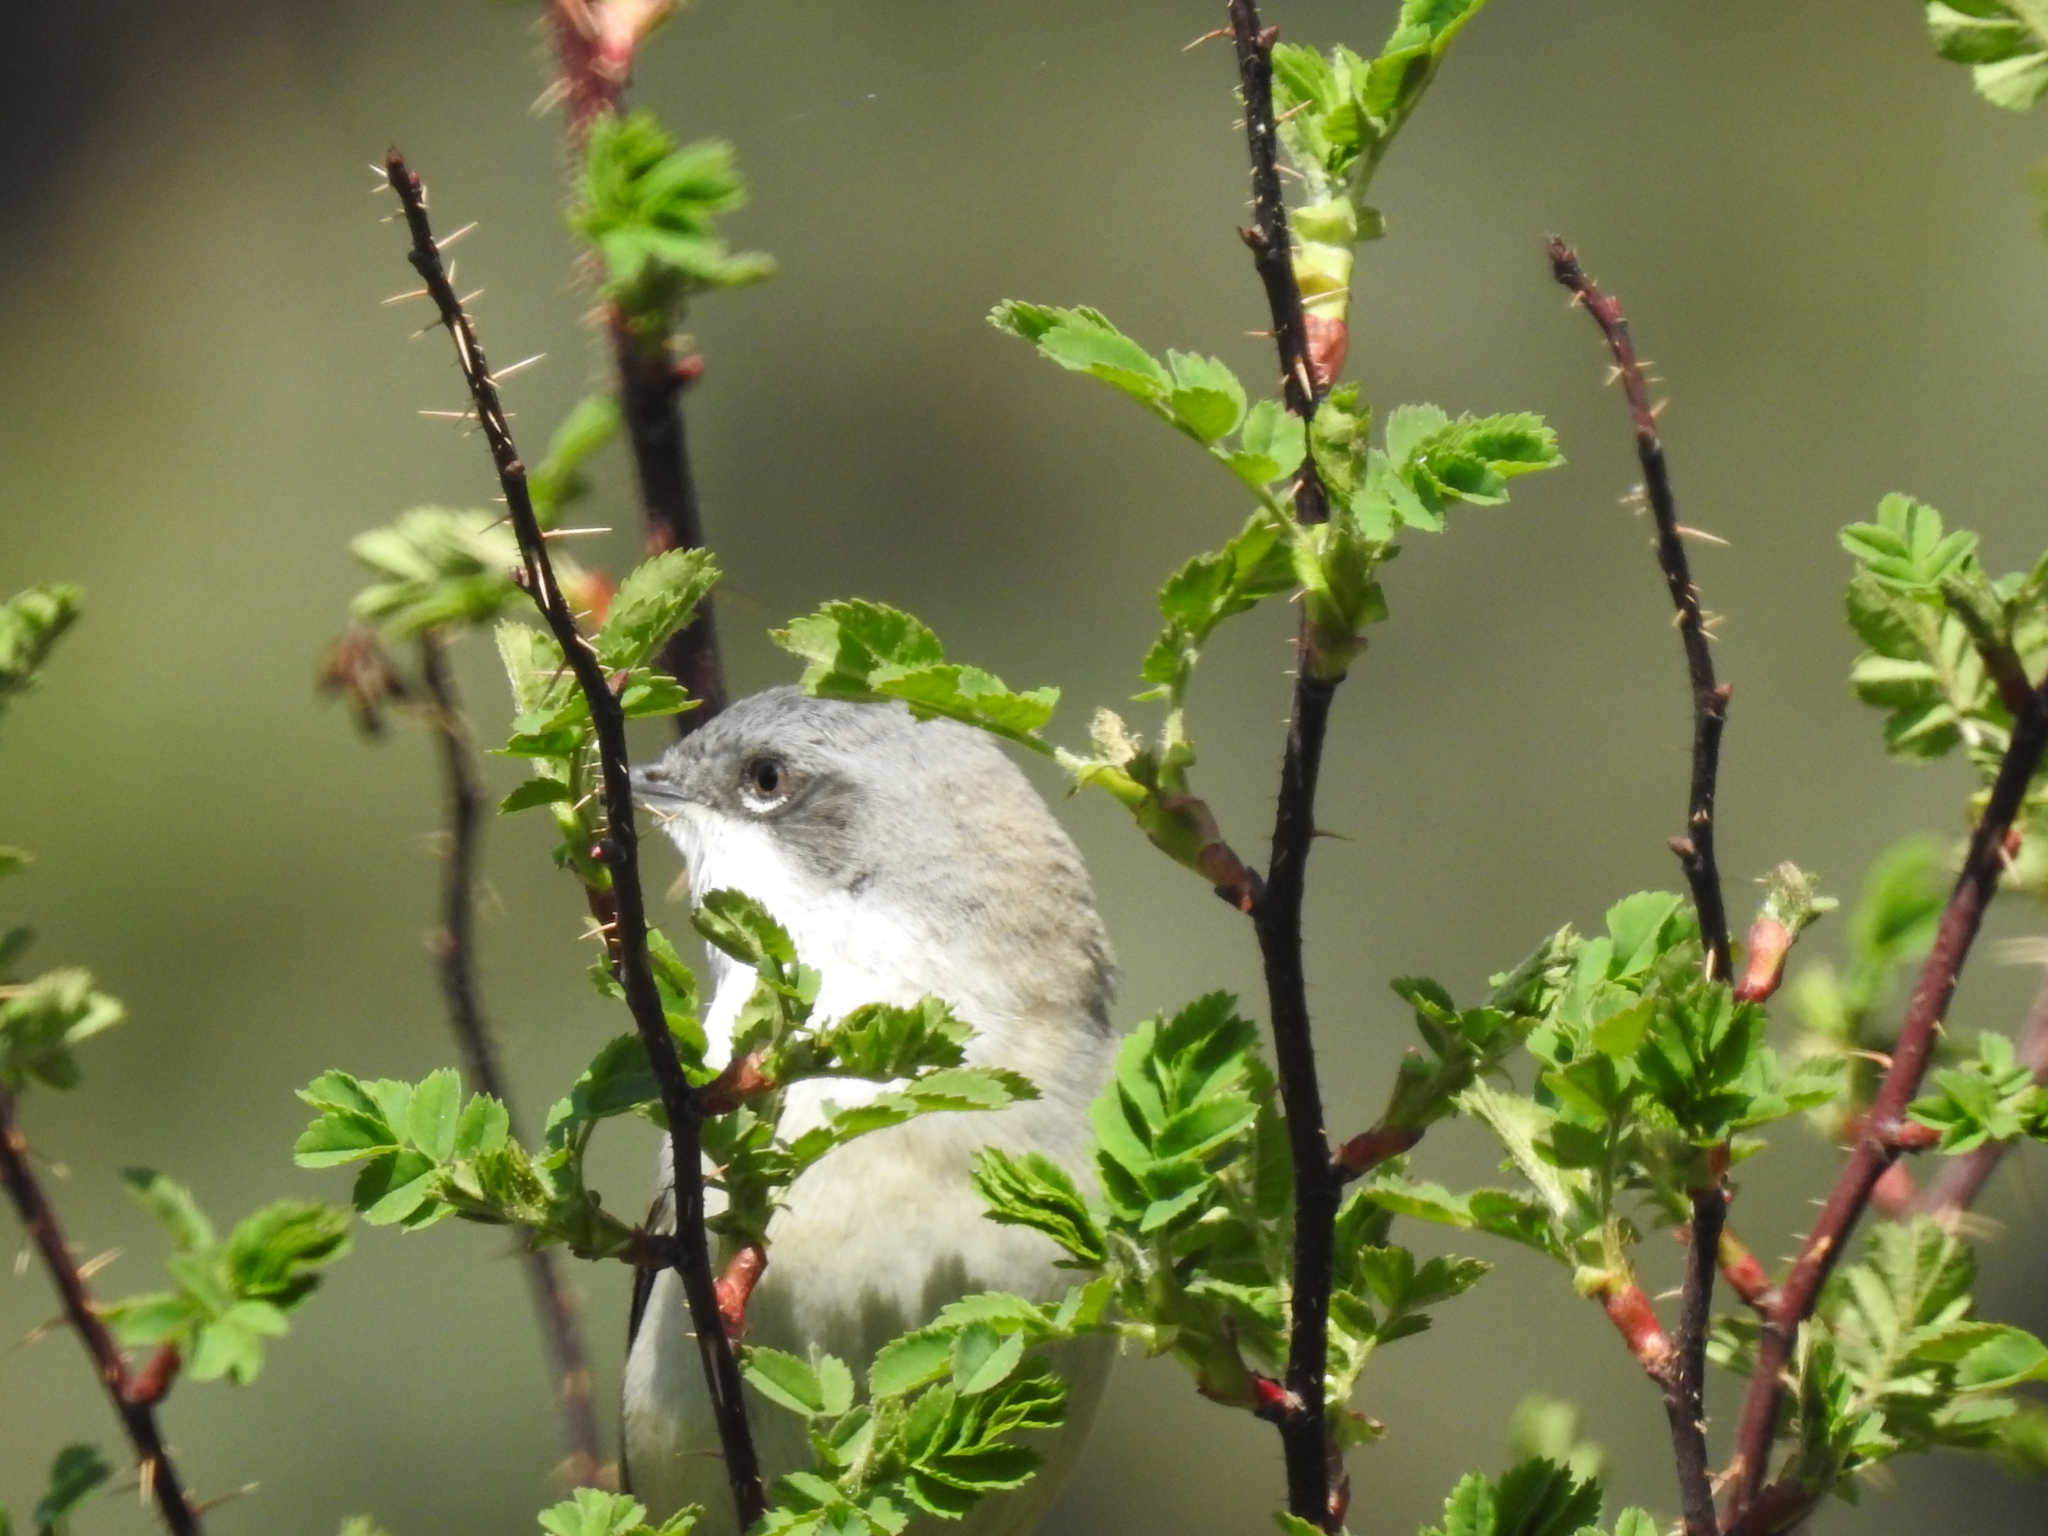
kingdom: Animalia
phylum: Chordata
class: Aves
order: Passeriformes
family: Sylviidae
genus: Sylvia
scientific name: Sylvia curruca
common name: Lesser whitethroat
